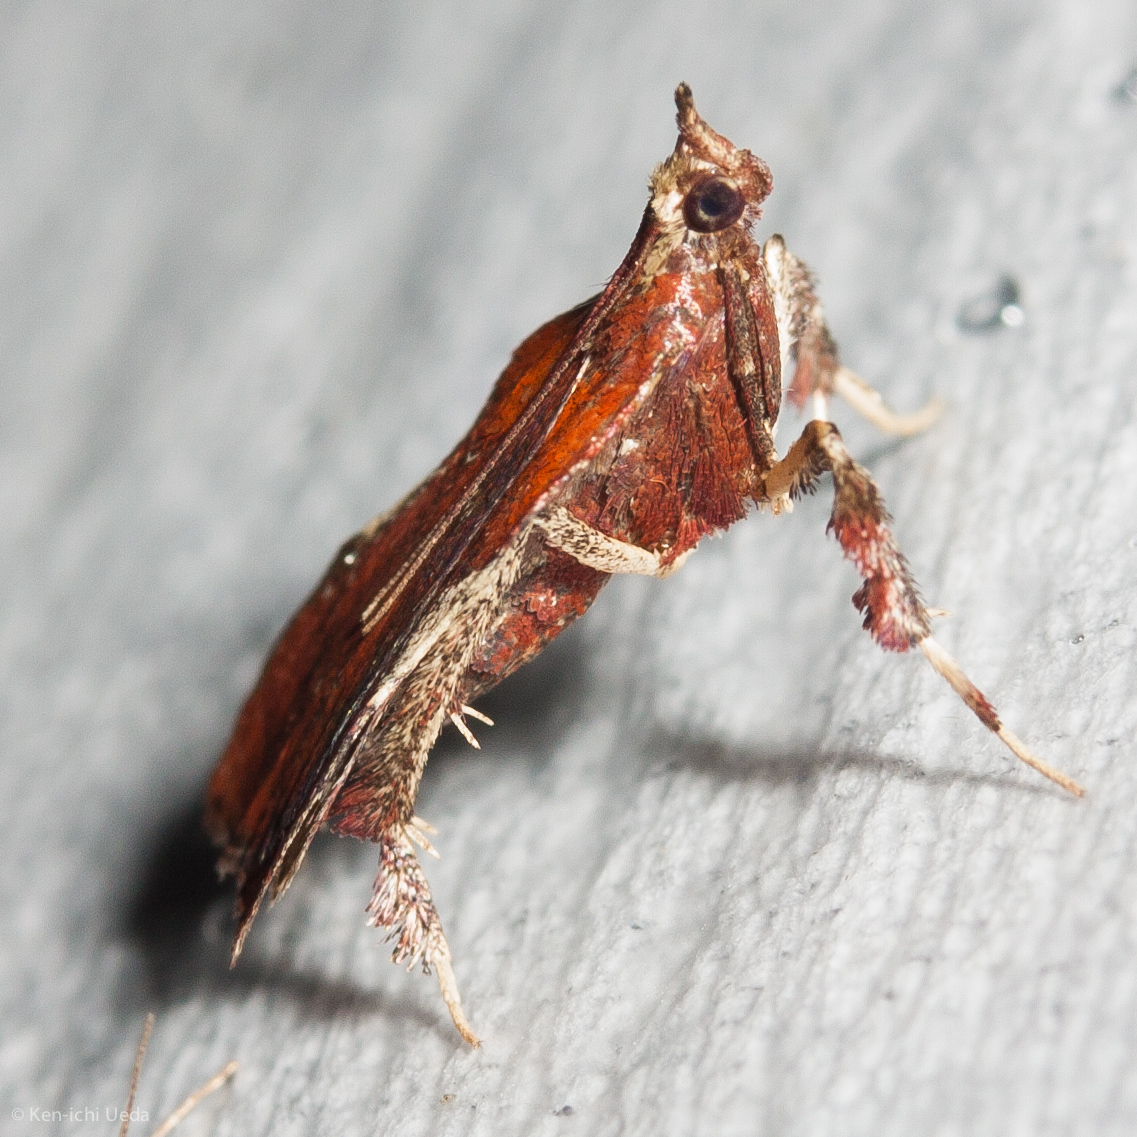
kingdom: Animalia
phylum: Arthropoda
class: Insecta
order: Lepidoptera
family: Pyralidae
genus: Galasa
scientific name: Galasa nigrinodis
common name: Boxwood leaftier moth
